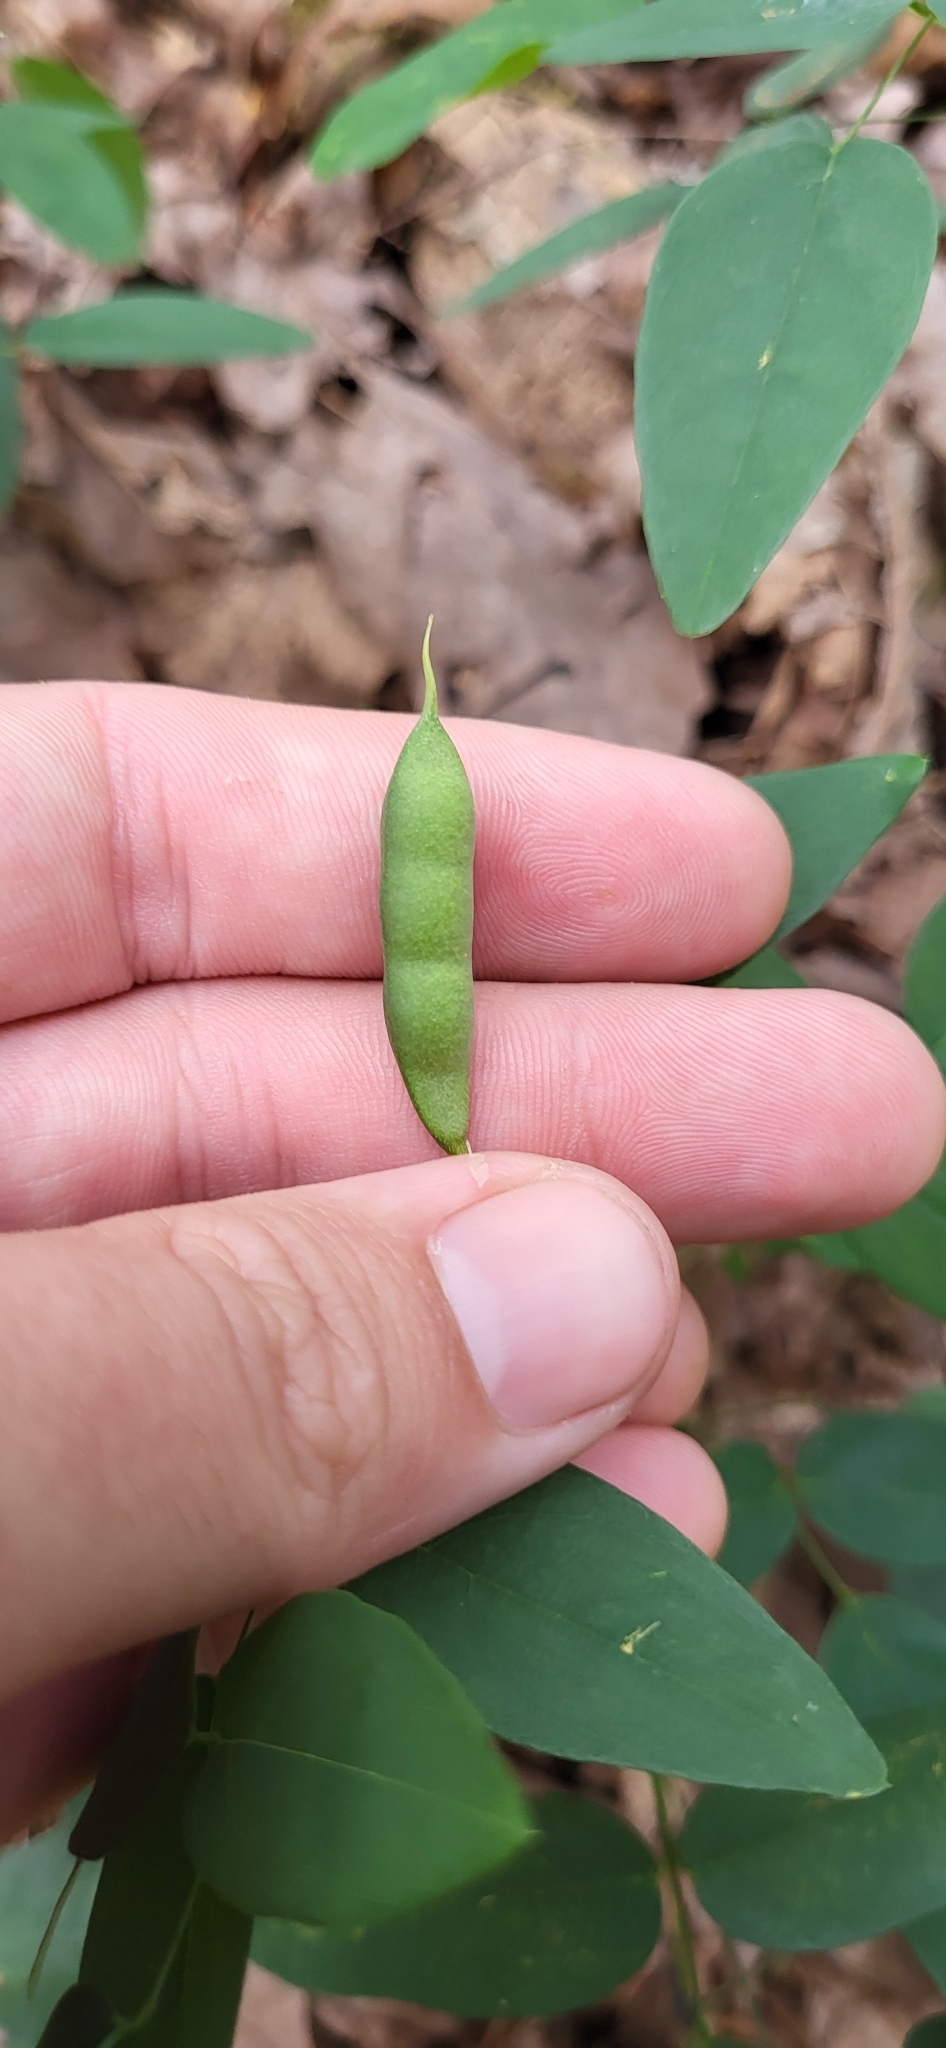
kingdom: Plantae
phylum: Tracheophyta
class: Magnoliopsida
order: Fabales
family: Fabaceae
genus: Clitoria
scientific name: Clitoria mariana
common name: Butterfly-pea
